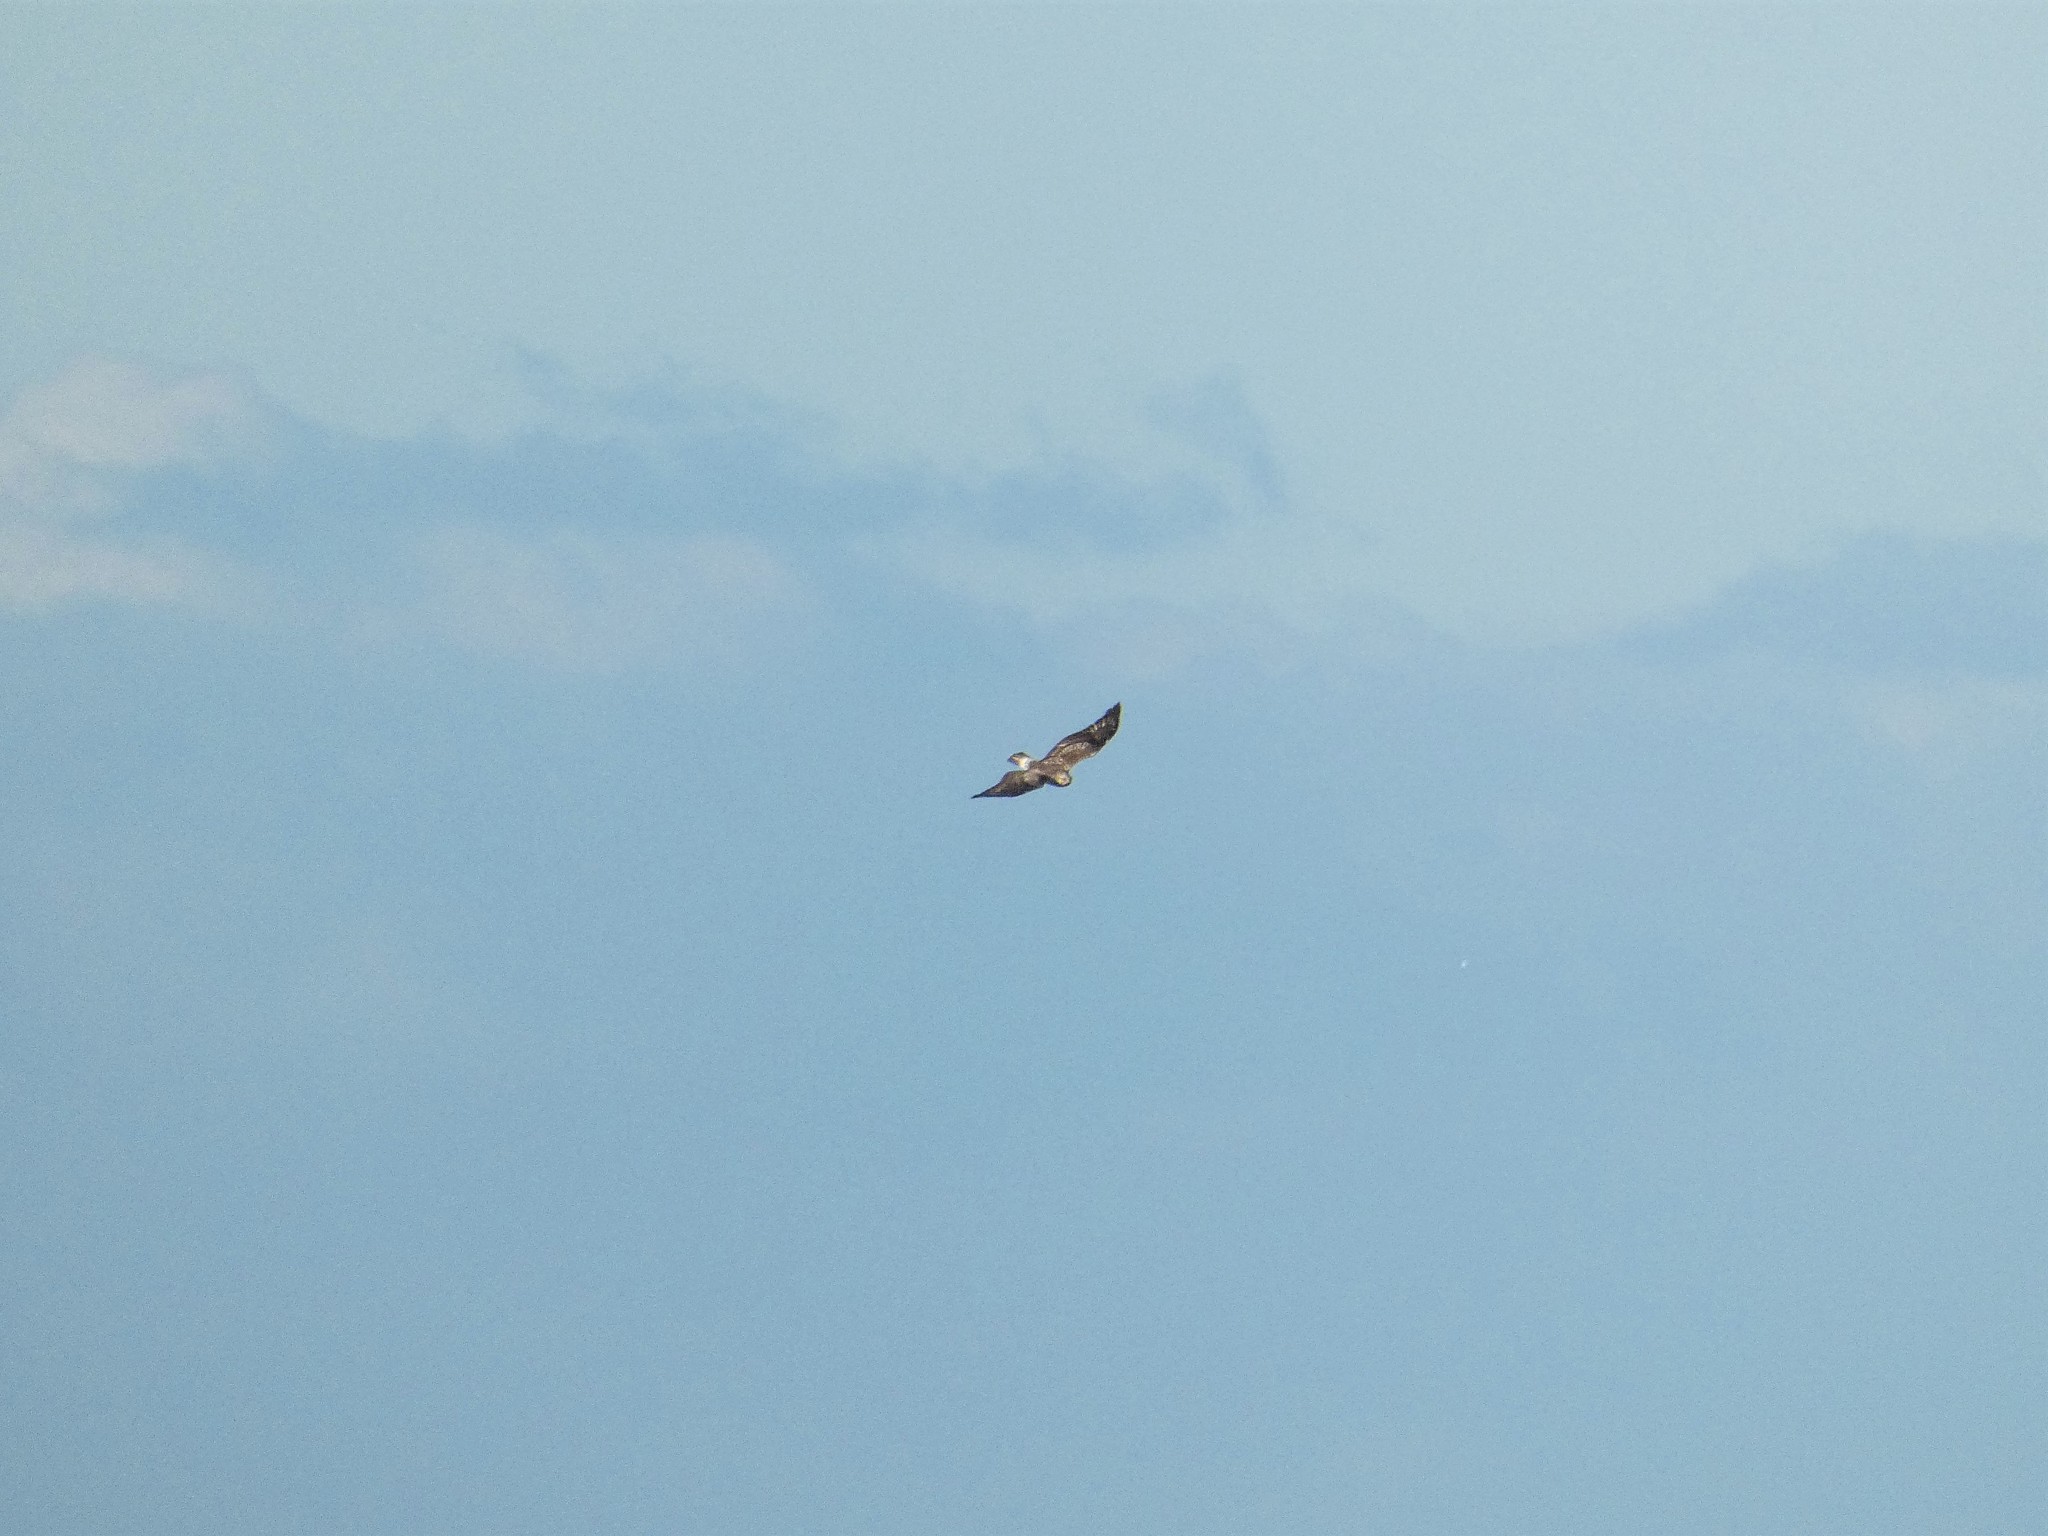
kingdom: Animalia
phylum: Chordata
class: Aves
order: Accipitriformes
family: Accipitridae
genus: Buteo
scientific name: Buteo lagopus
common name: Rough-legged buzzard
